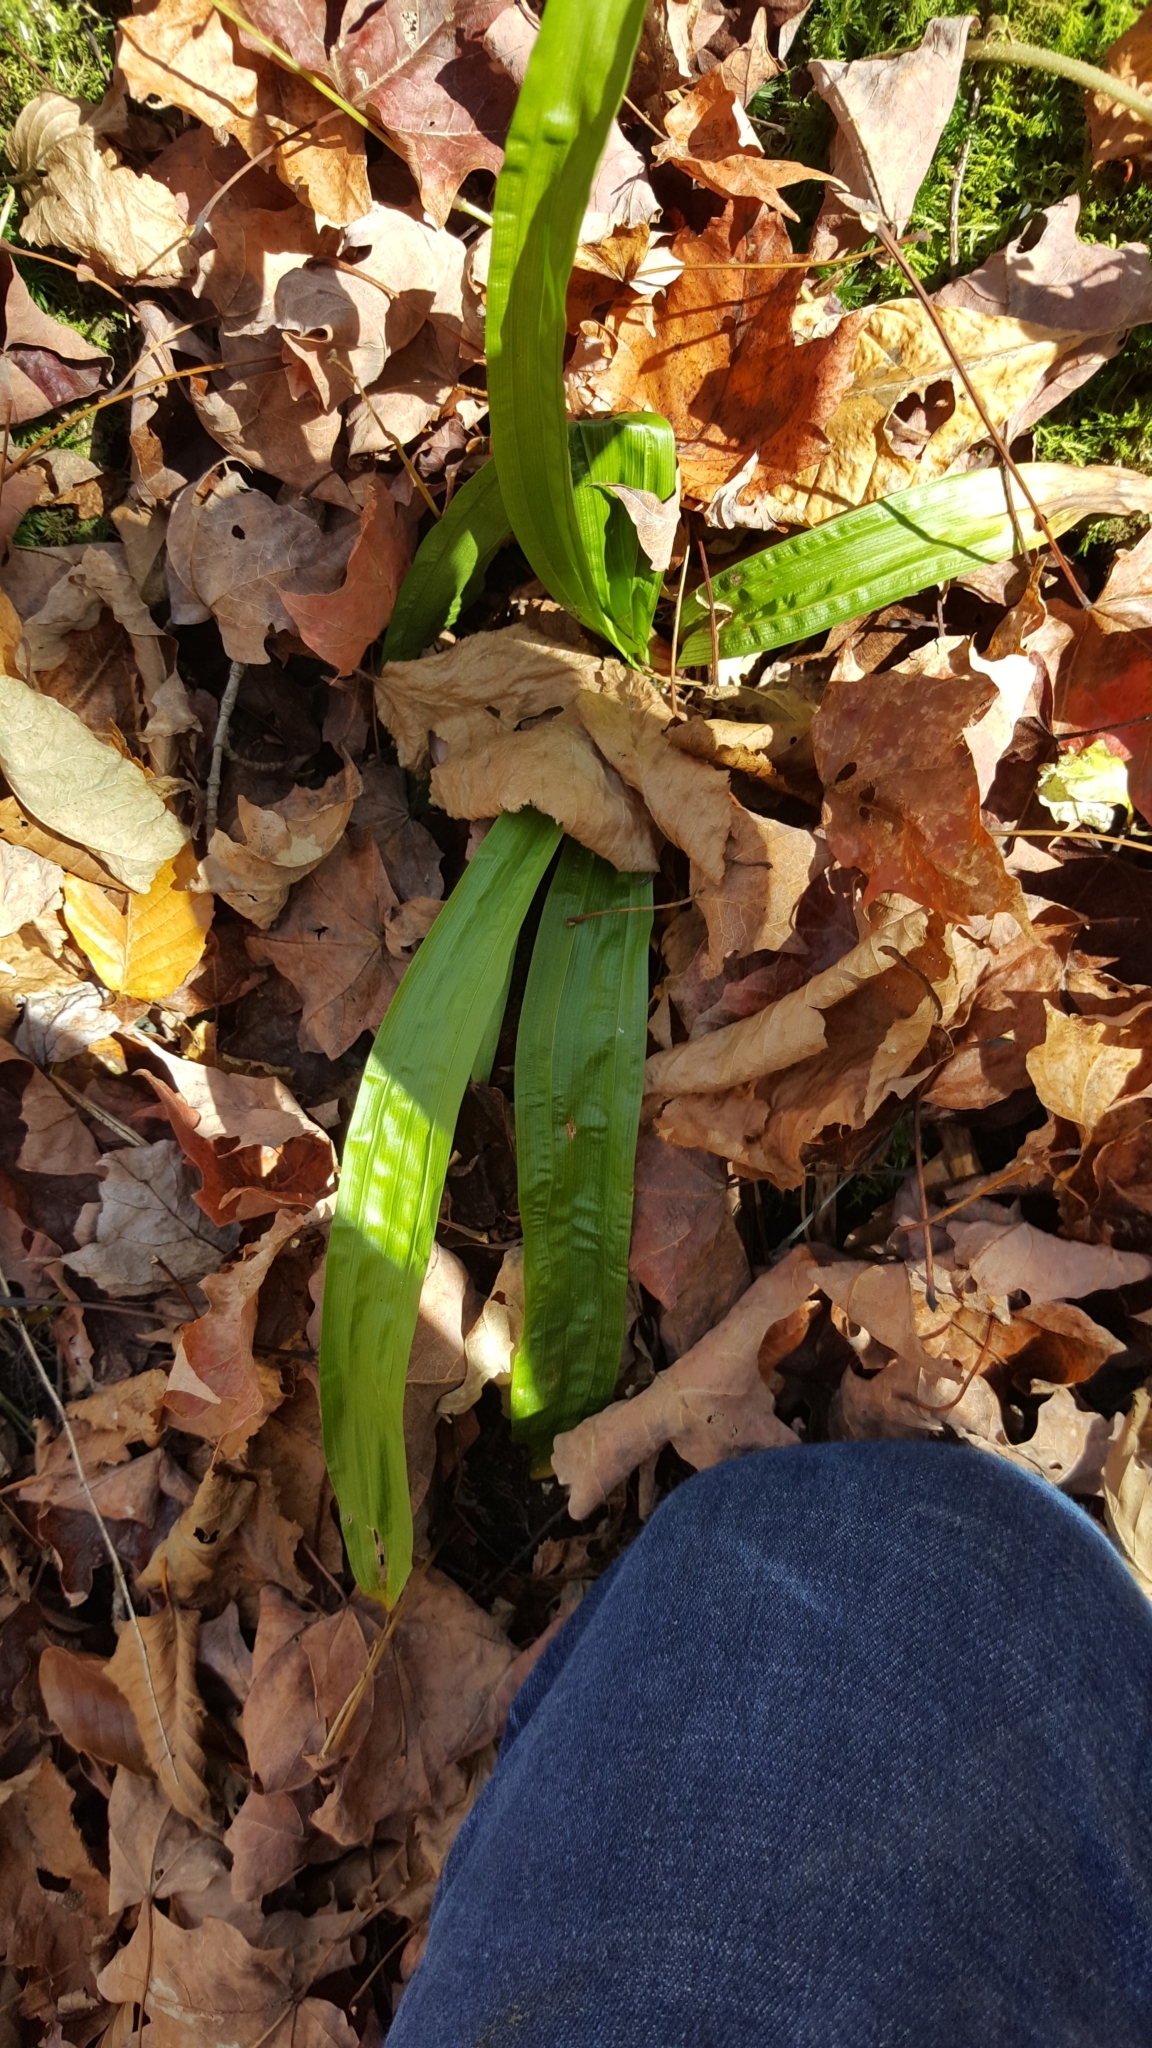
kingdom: Plantae
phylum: Tracheophyta
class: Liliopsida
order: Poales
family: Cyperaceae
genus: Carex
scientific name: Carex plantaginea
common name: Plantain-leaved sedge
